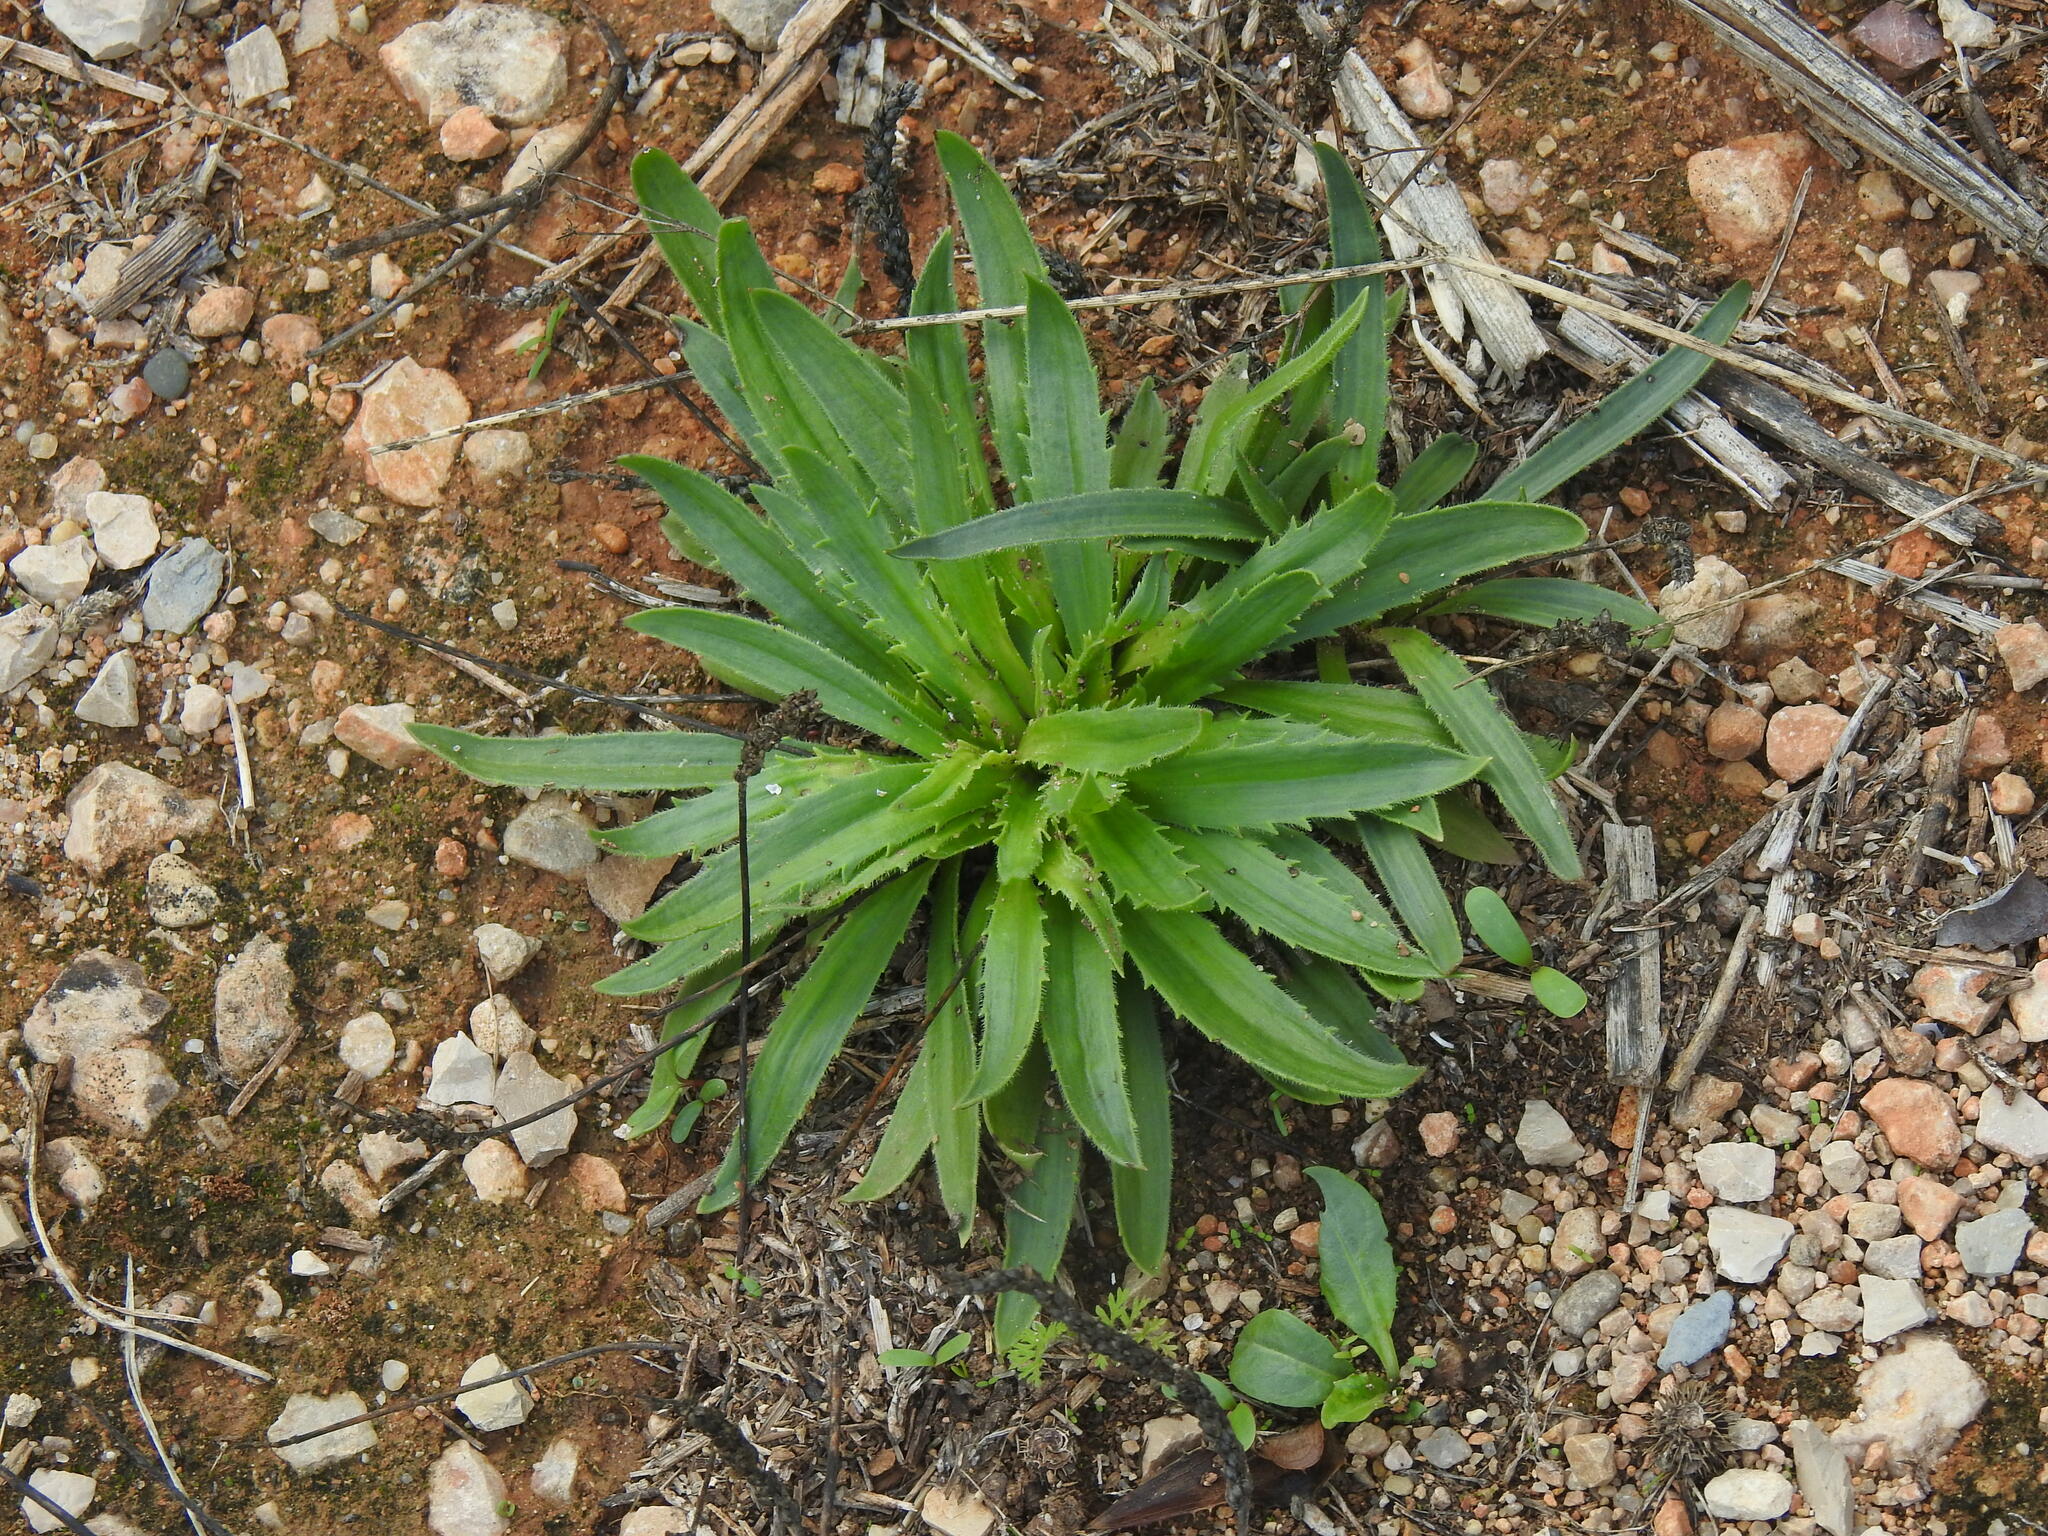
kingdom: Plantae
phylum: Tracheophyta
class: Magnoliopsida
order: Lamiales
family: Plantaginaceae
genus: Plantago
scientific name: Plantago serraria
